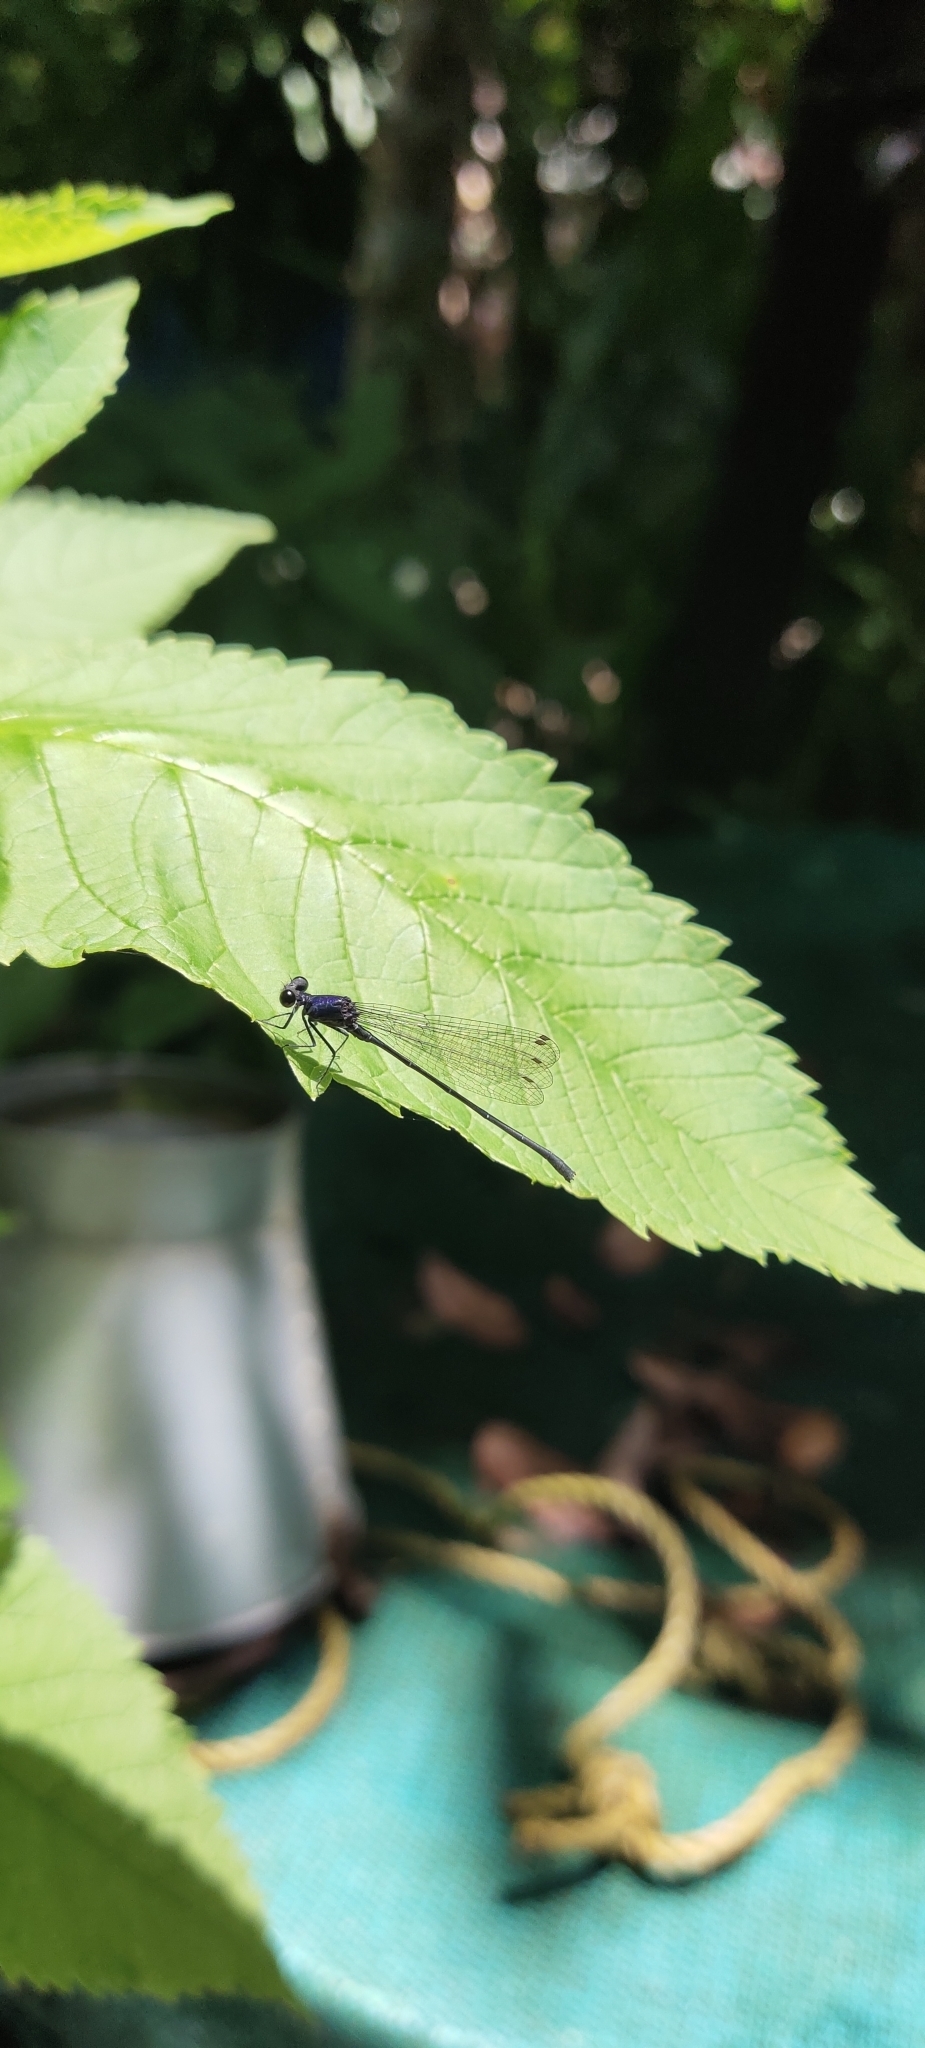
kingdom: Animalia
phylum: Arthropoda
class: Insecta
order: Odonata
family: Platycnemididae
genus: Onychargia
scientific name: Onychargia atrocyana
